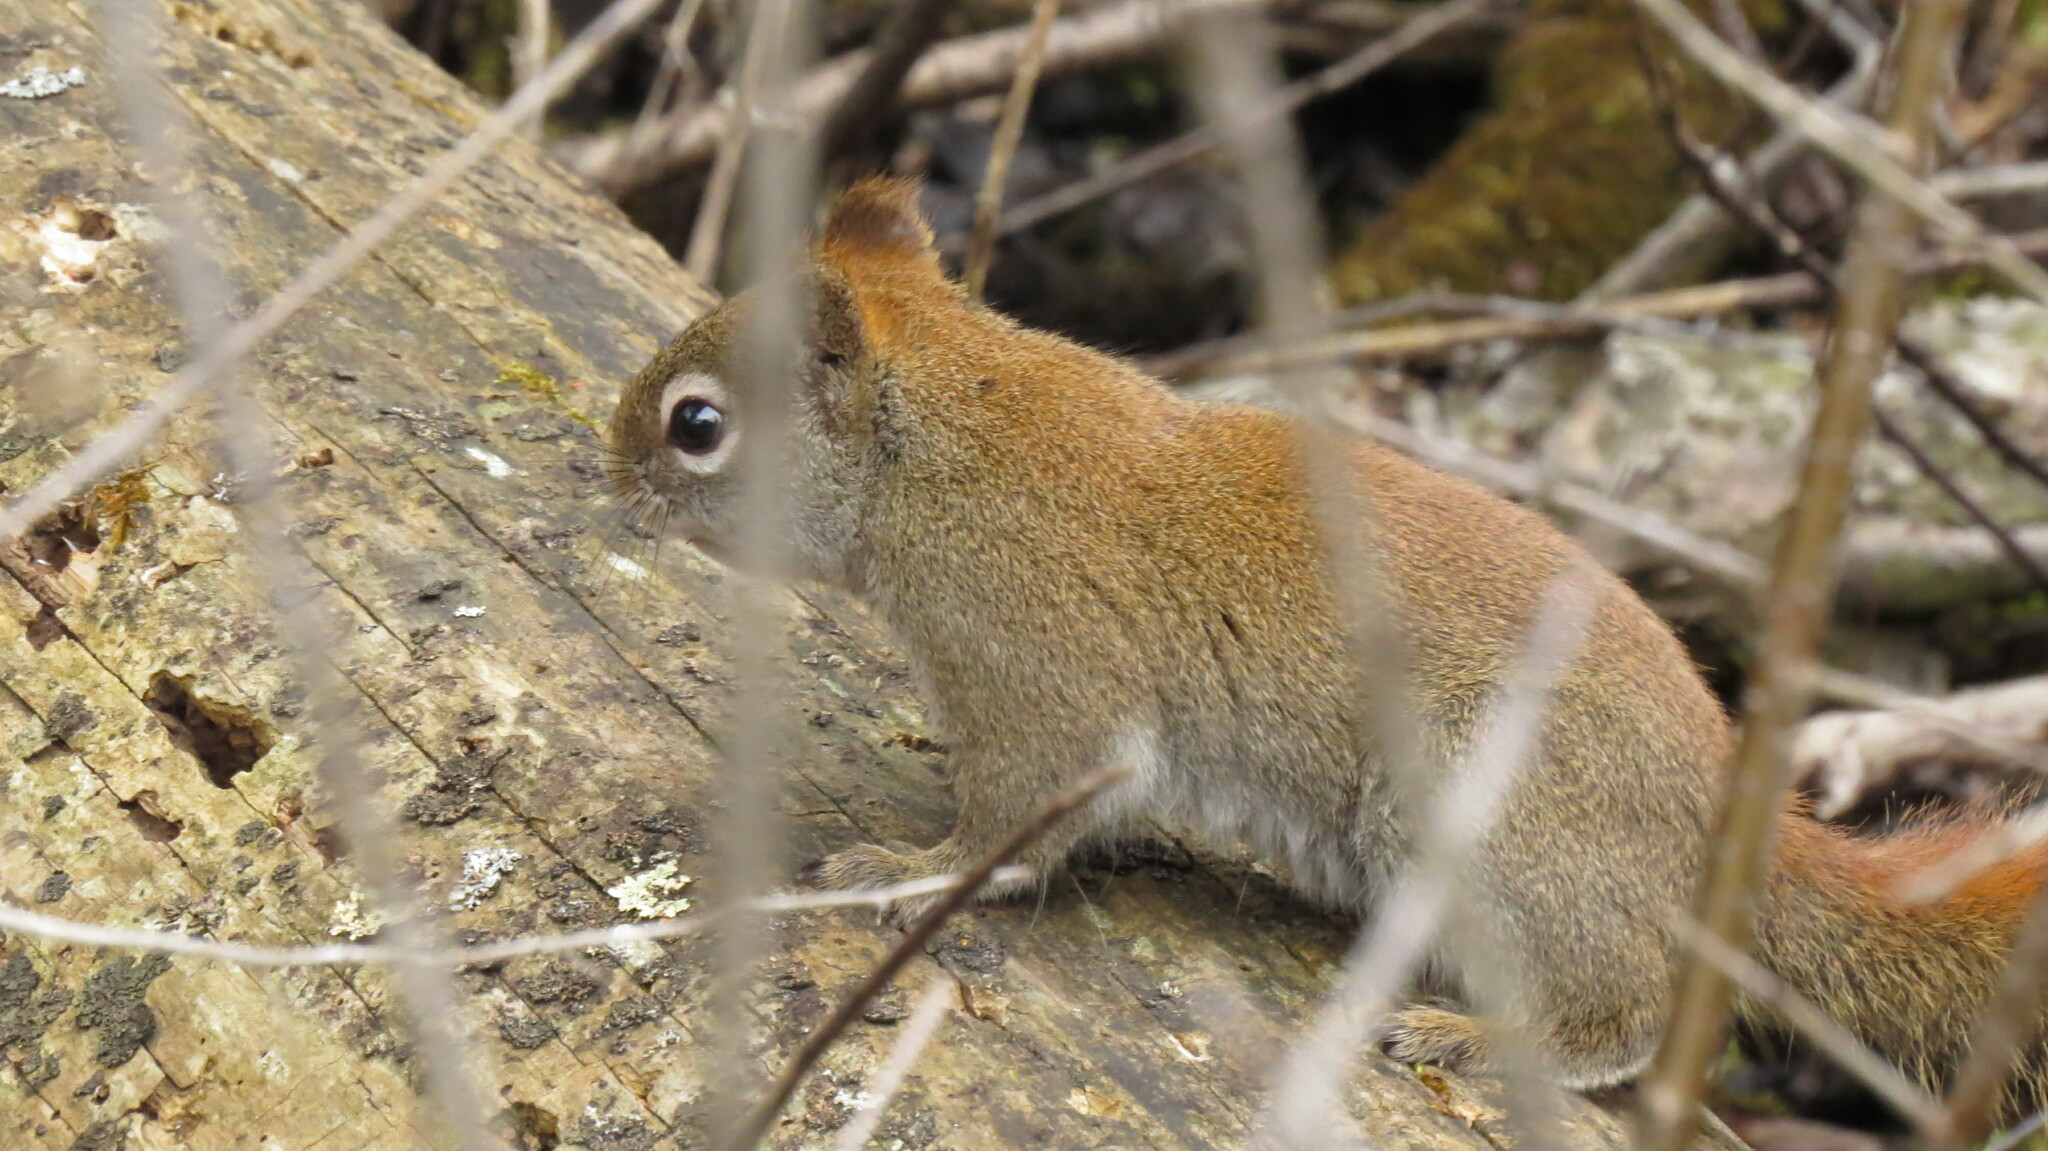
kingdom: Animalia
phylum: Chordata
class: Mammalia
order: Rodentia
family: Sciuridae
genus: Tamiasciurus
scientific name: Tamiasciurus hudsonicus
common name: Red squirrel
